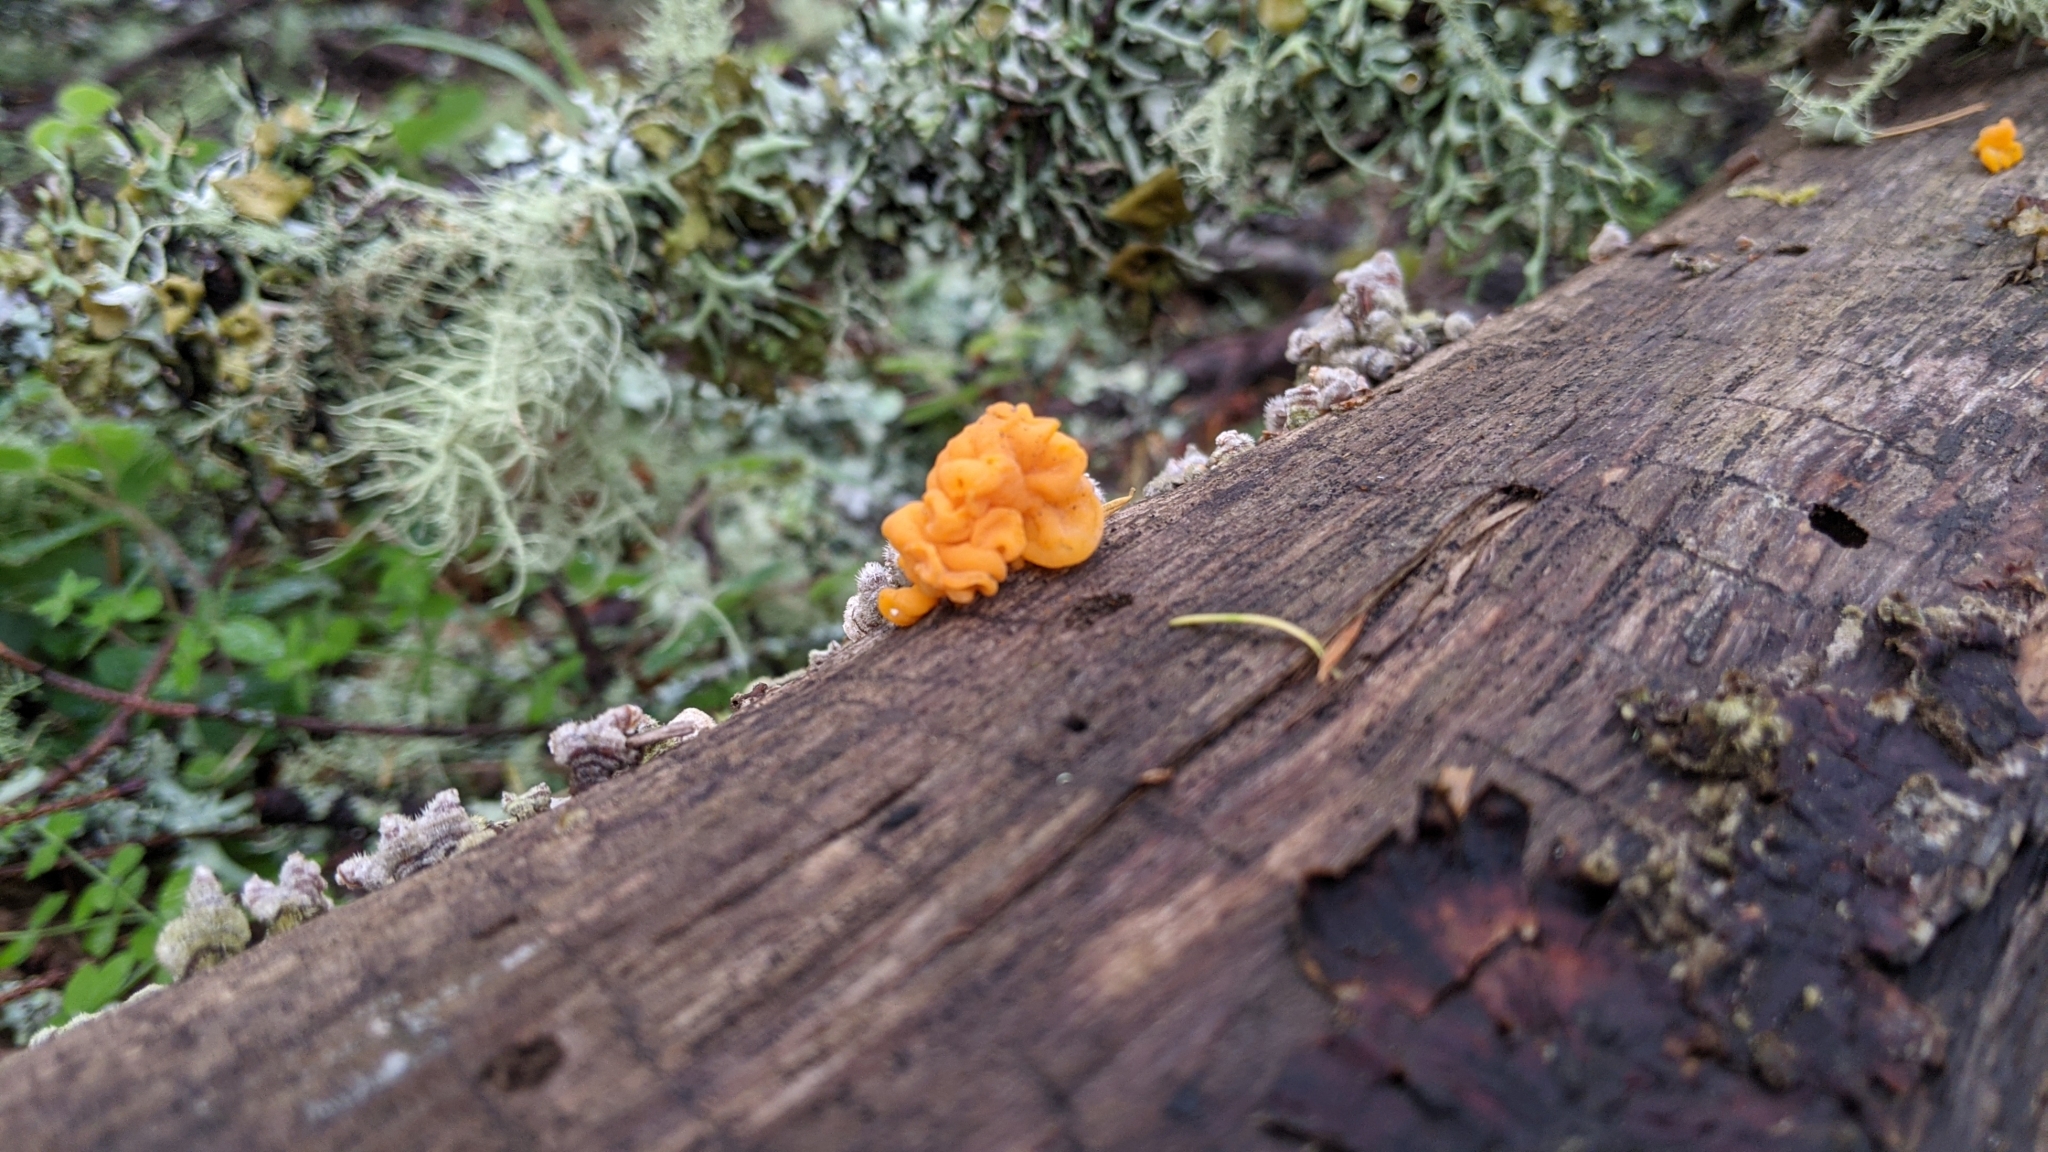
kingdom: Fungi
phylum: Basidiomycota
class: Tremellomycetes
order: Tremellales
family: Naemateliaceae
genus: Naematelia
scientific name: Naematelia aurantia
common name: Golden ear
